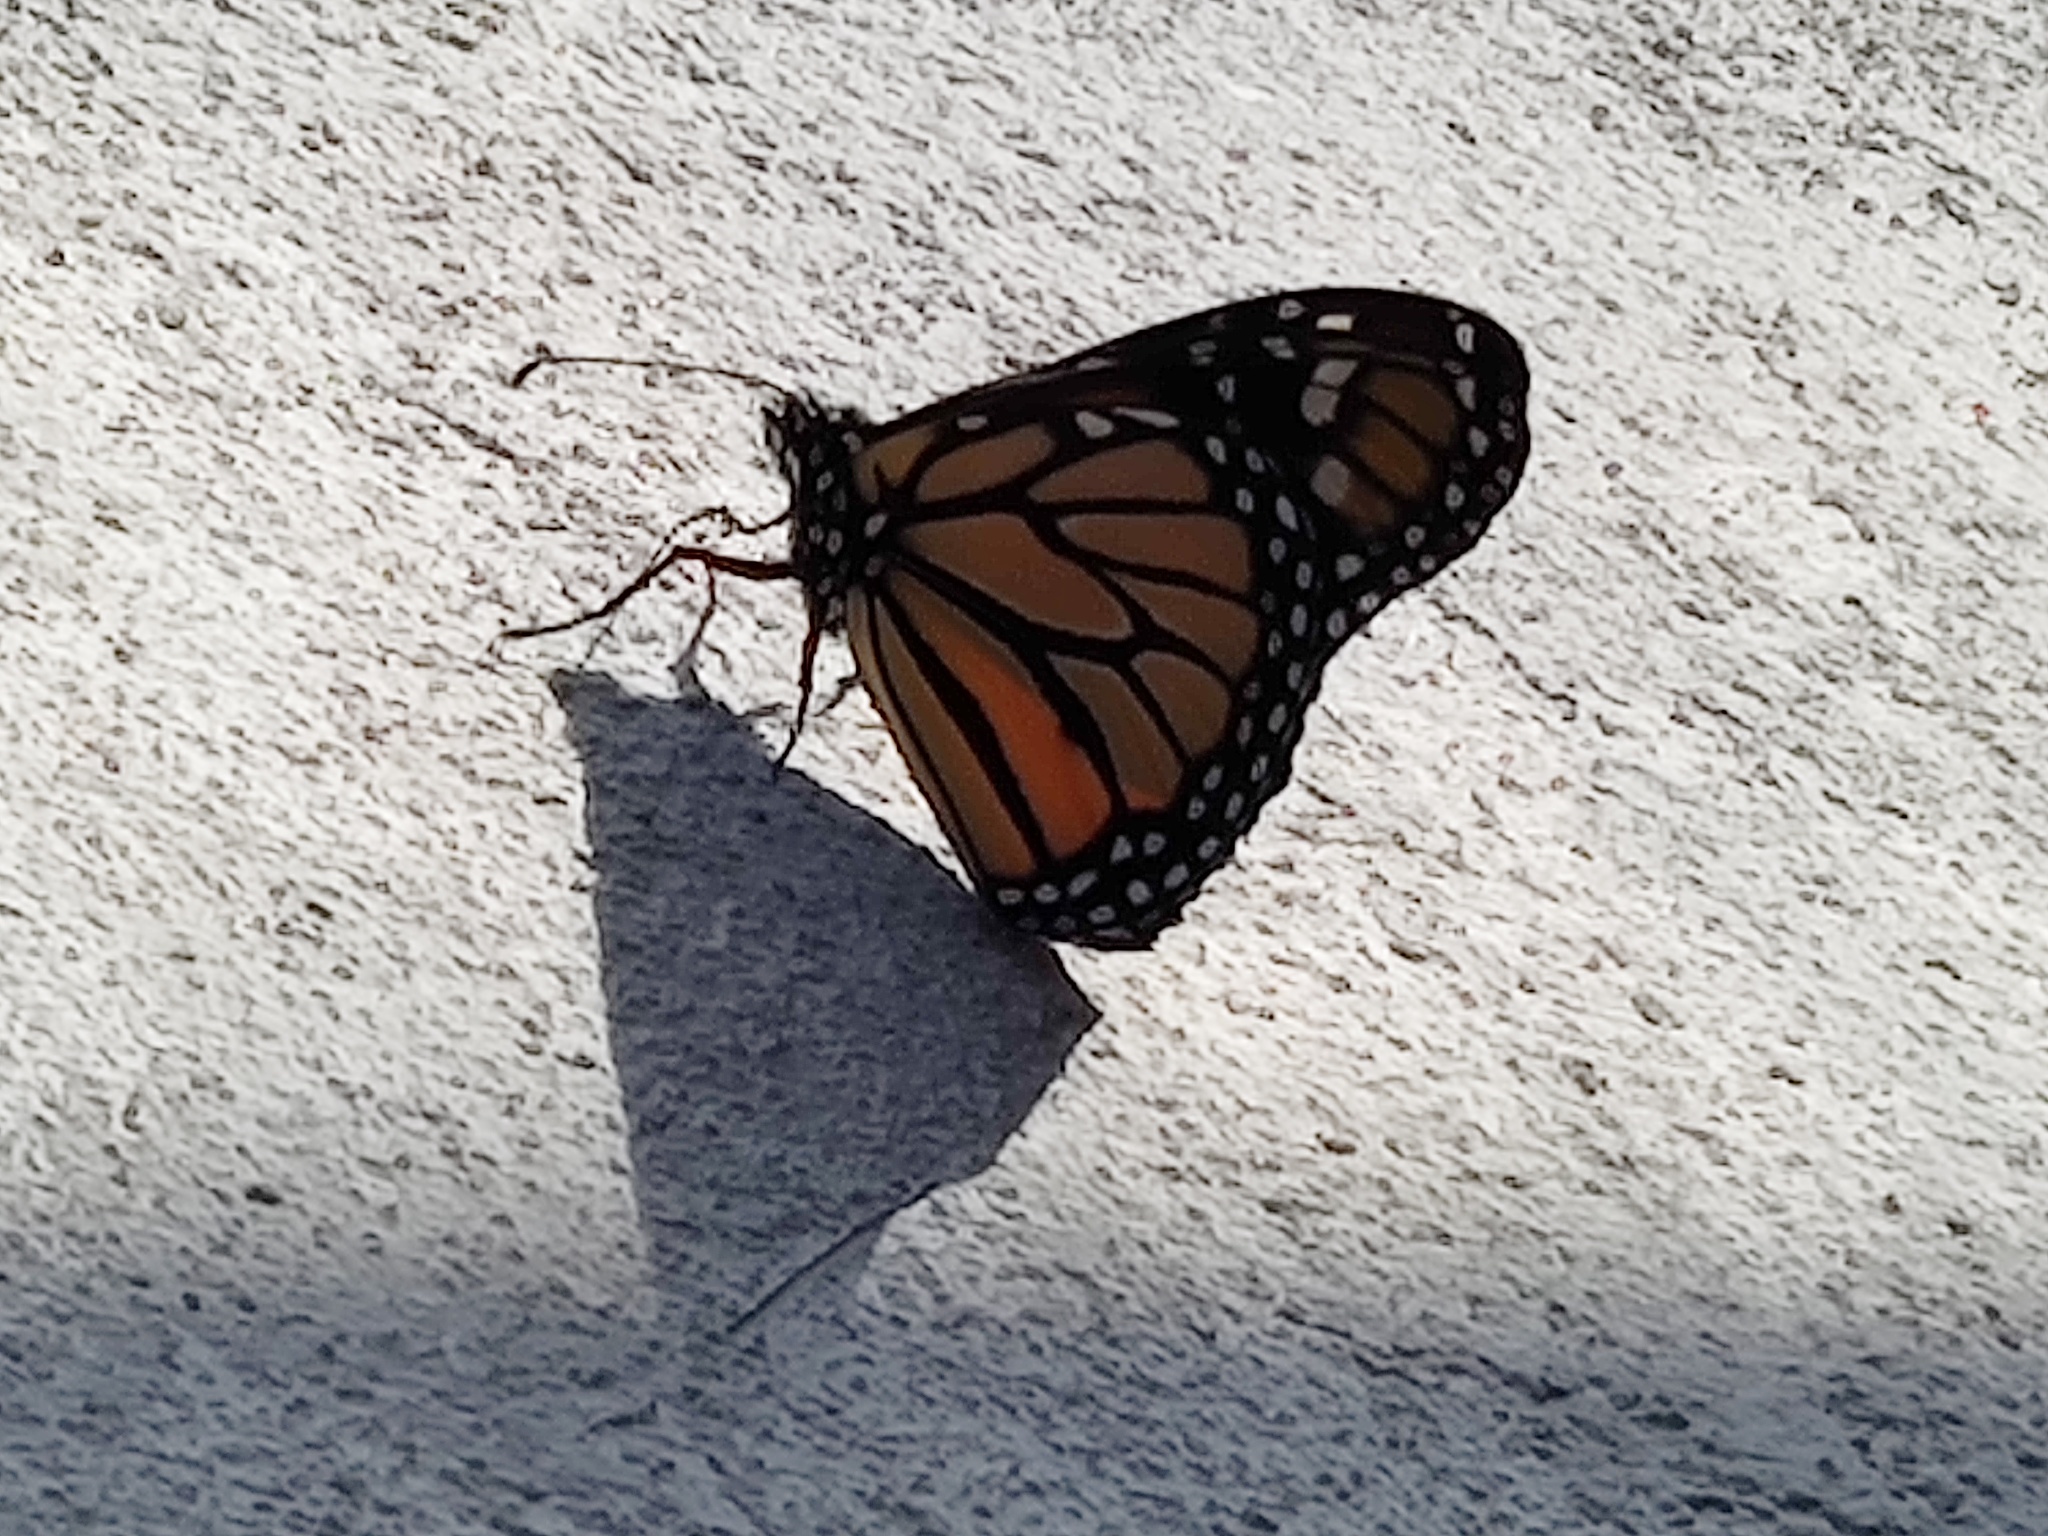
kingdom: Animalia
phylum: Arthropoda
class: Insecta
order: Lepidoptera
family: Nymphalidae
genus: Danaus
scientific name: Danaus plexippus
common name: Monarch
